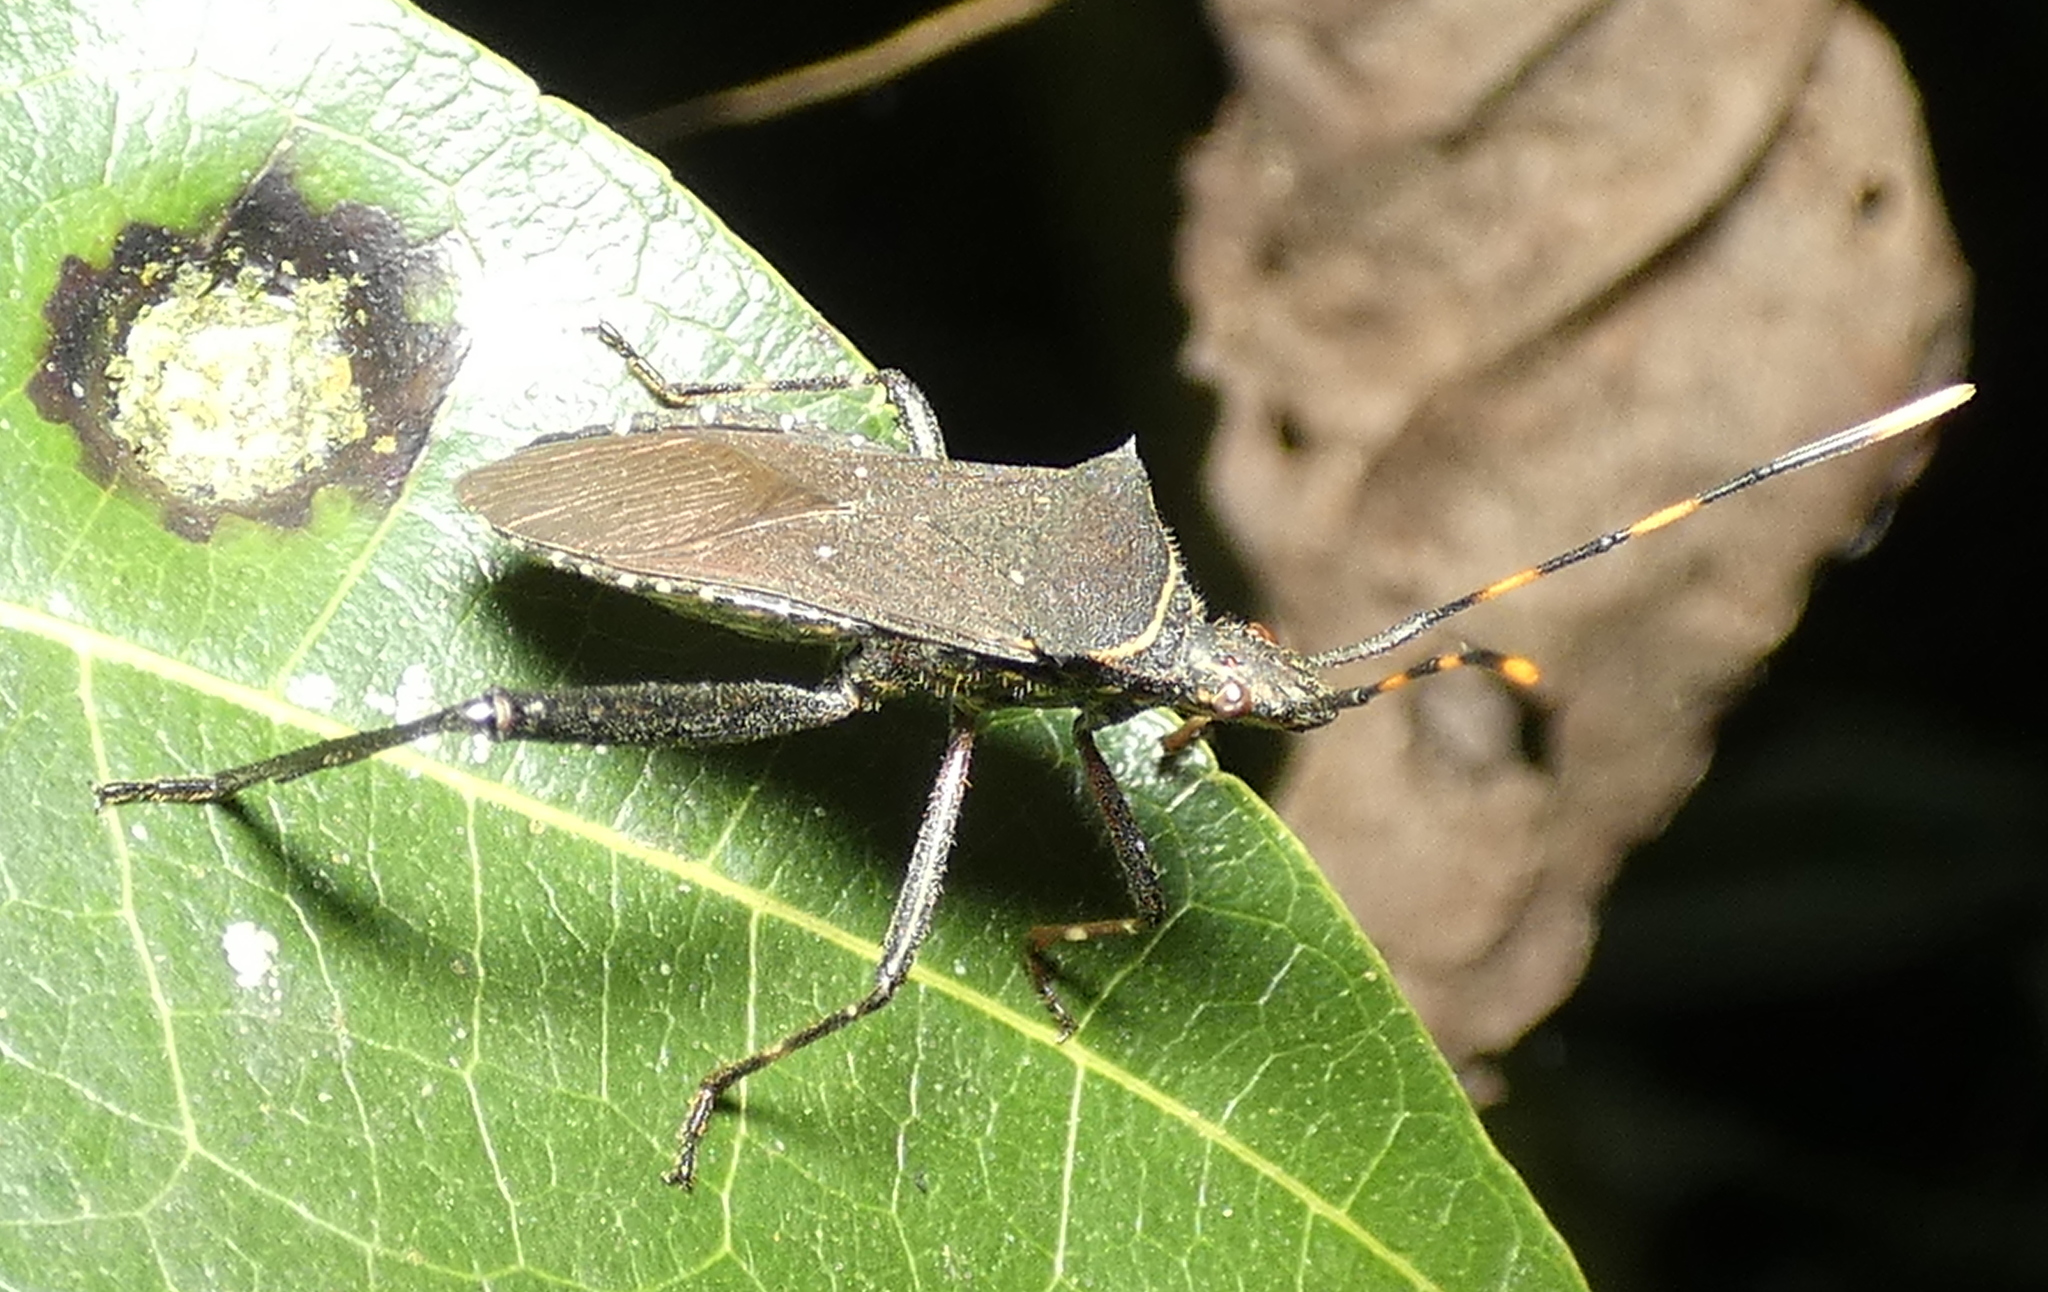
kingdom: Animalia
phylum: Arthropoda
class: Insecta
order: Hemiptera
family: Coreidae
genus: Leptoglossus
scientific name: Leptoglossus gonagra
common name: Citron bug
